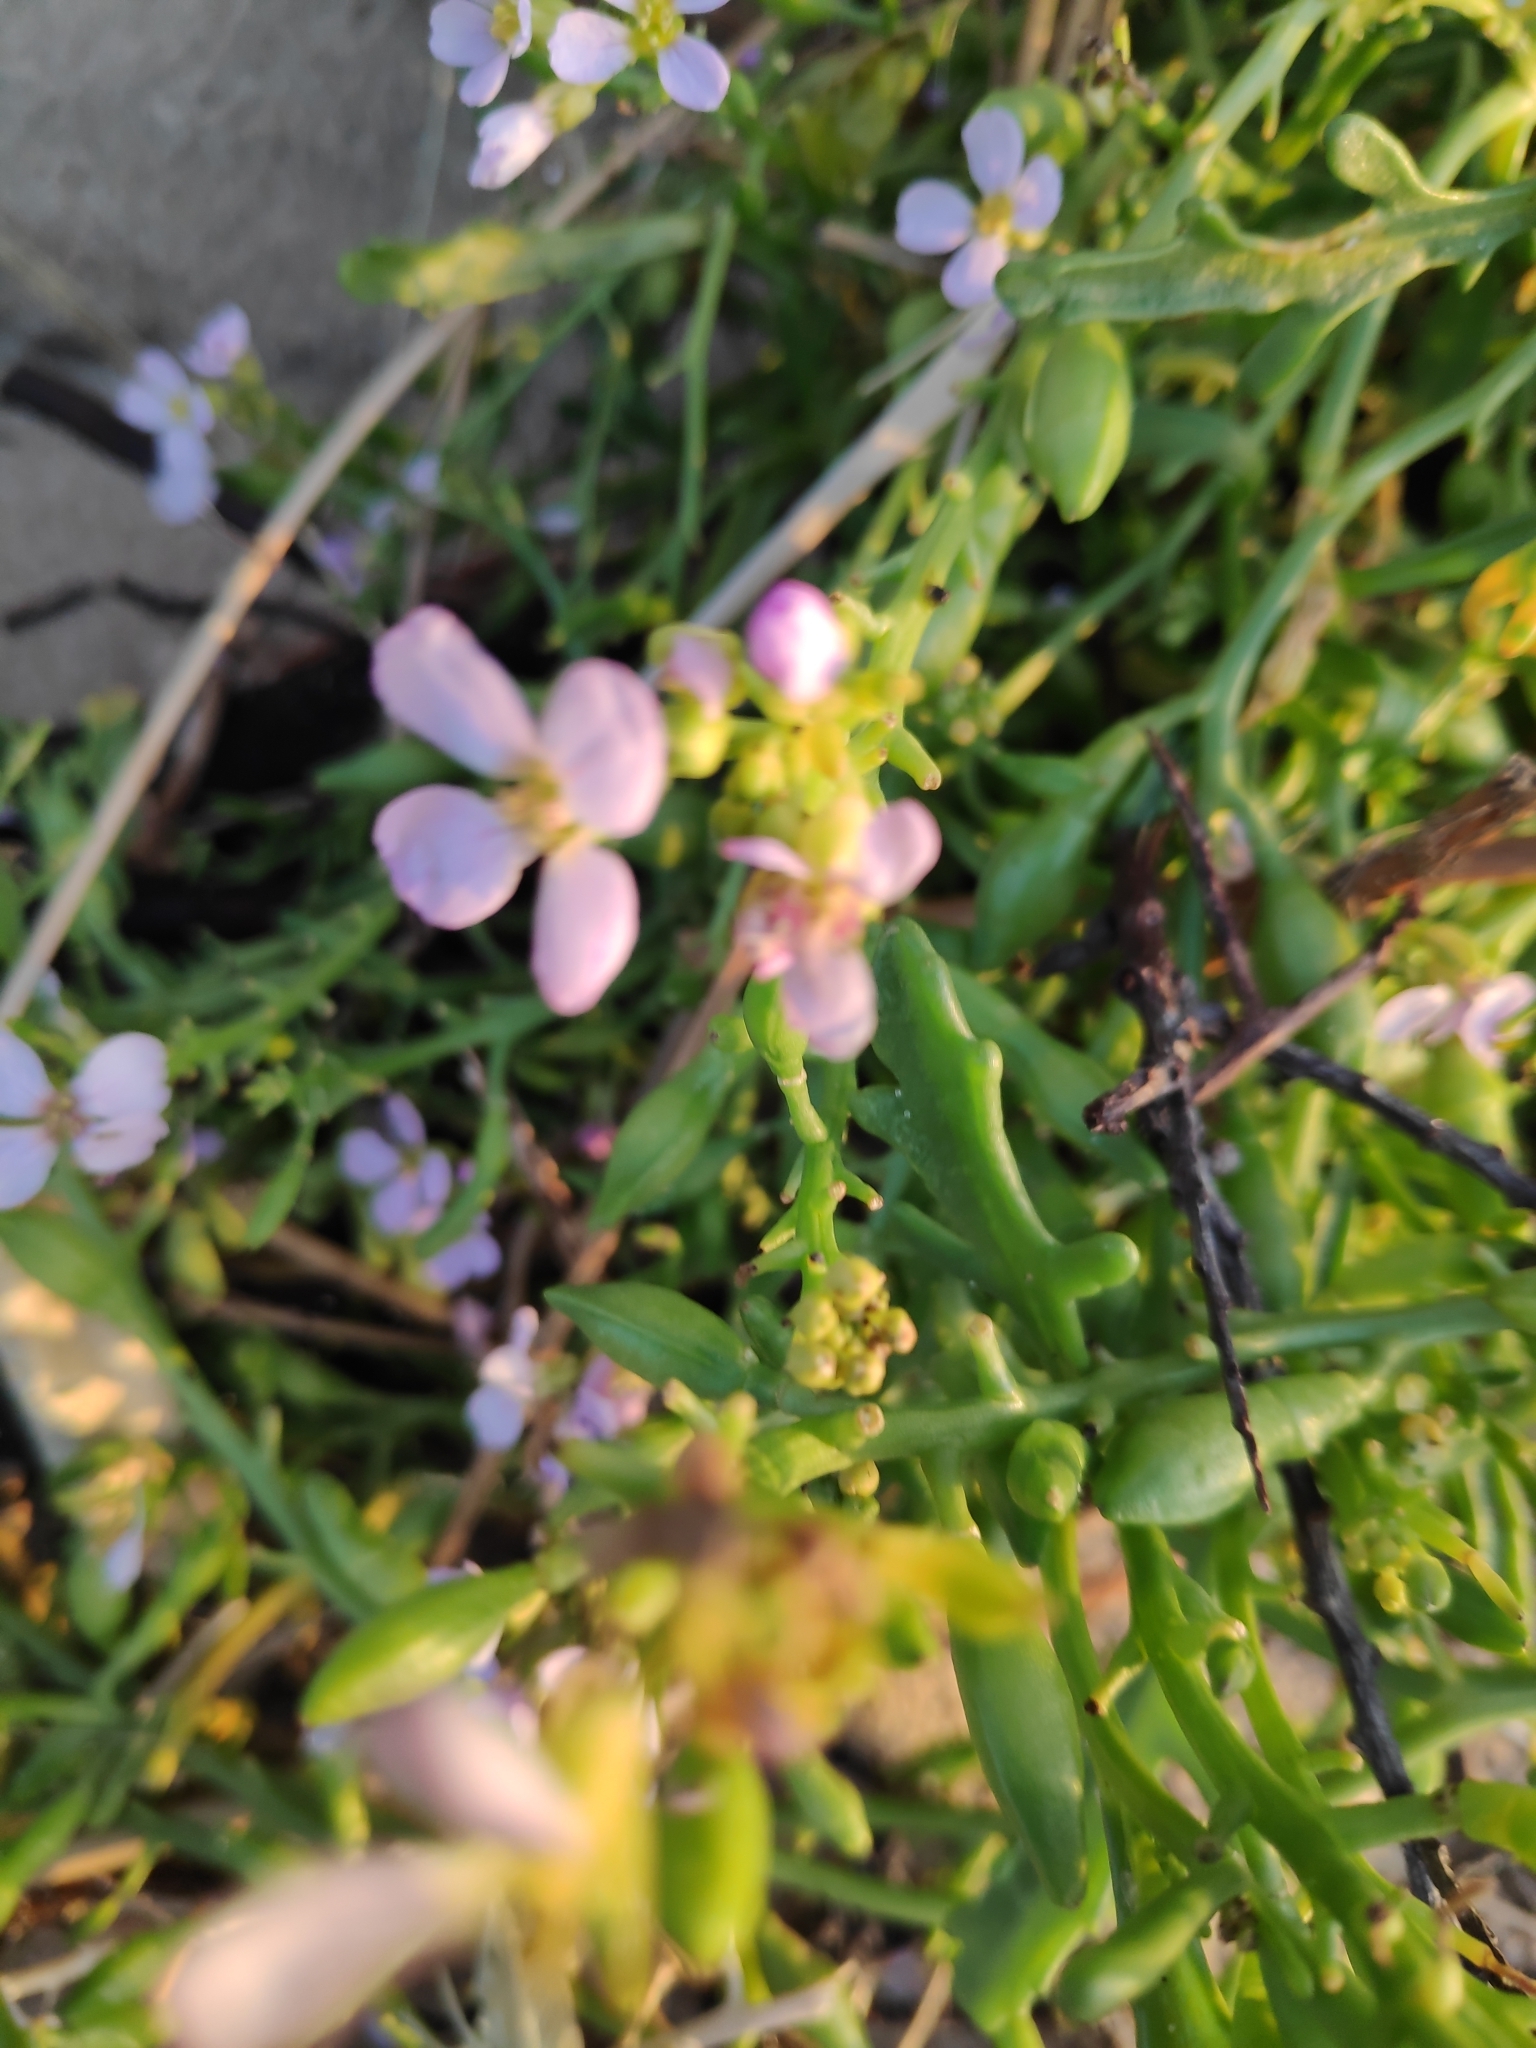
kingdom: Plantae
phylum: Tracheophyta
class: Magnoliopsida
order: Brassicales
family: Brassicaceae
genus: Cakile
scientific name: Cakile maritima
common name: Sea rocket
